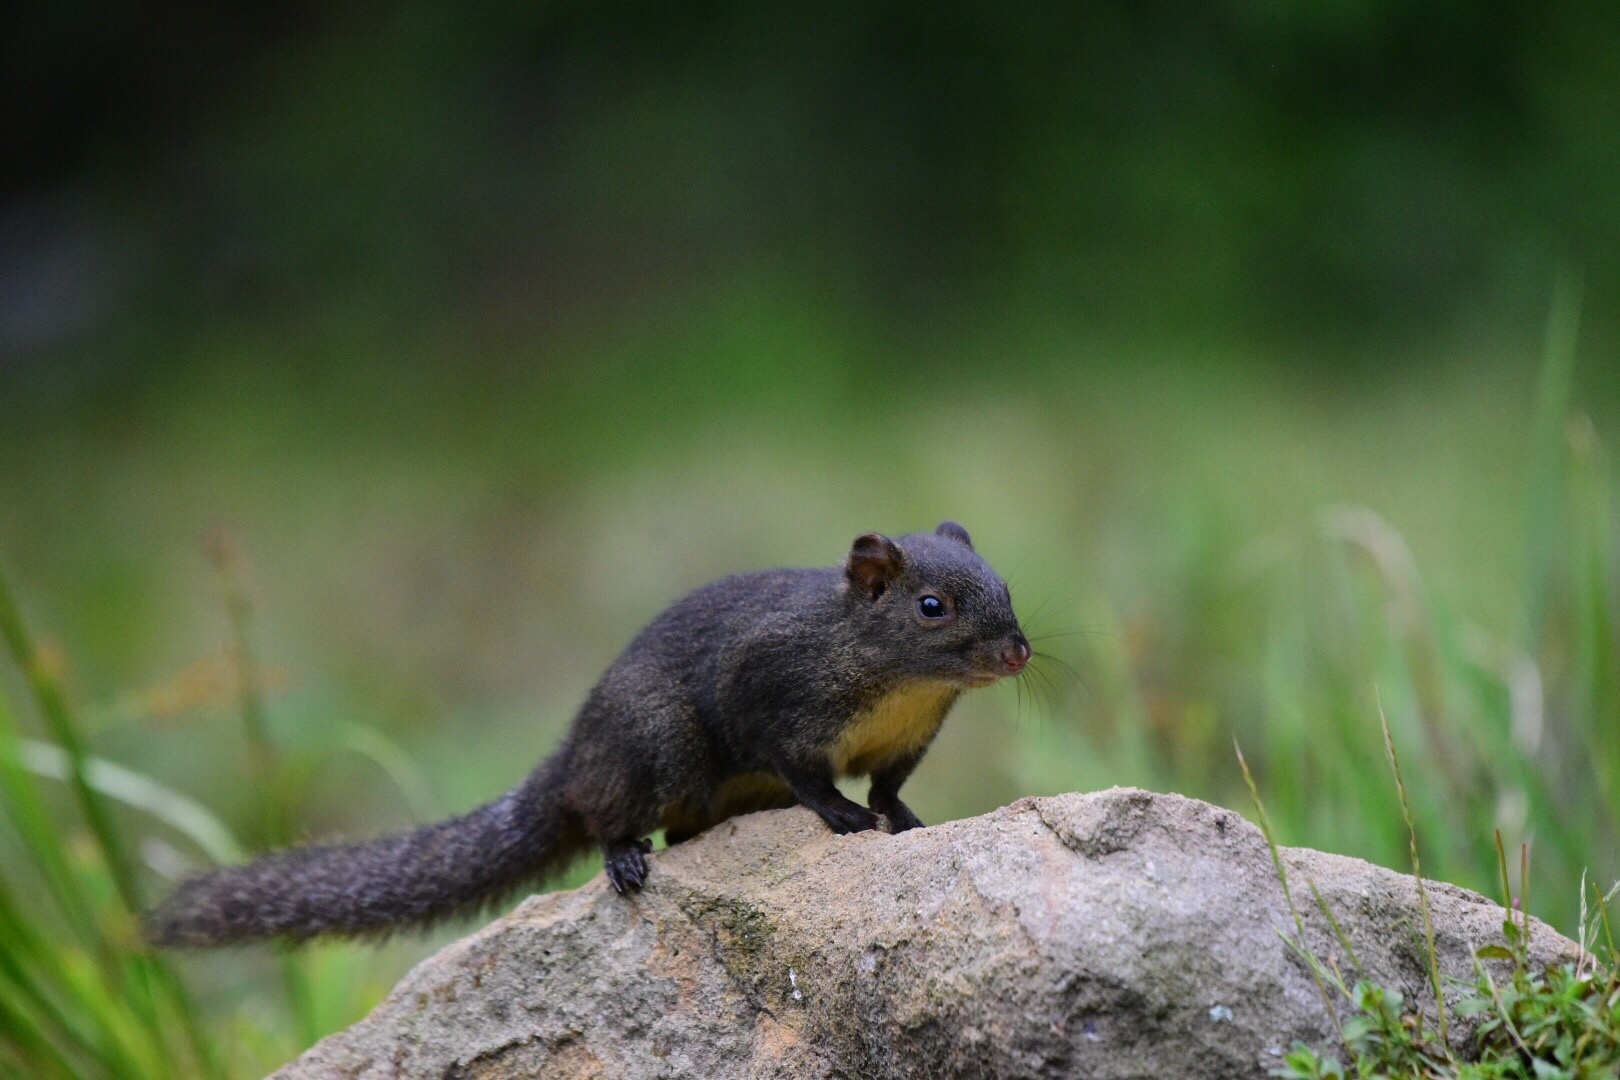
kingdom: Animalia
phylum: Chordata
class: Mammalia
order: Rodentia
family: Sciuridae
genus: Dremomys
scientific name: Dremomys pernyi
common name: Perny's long-nosed squirrel
